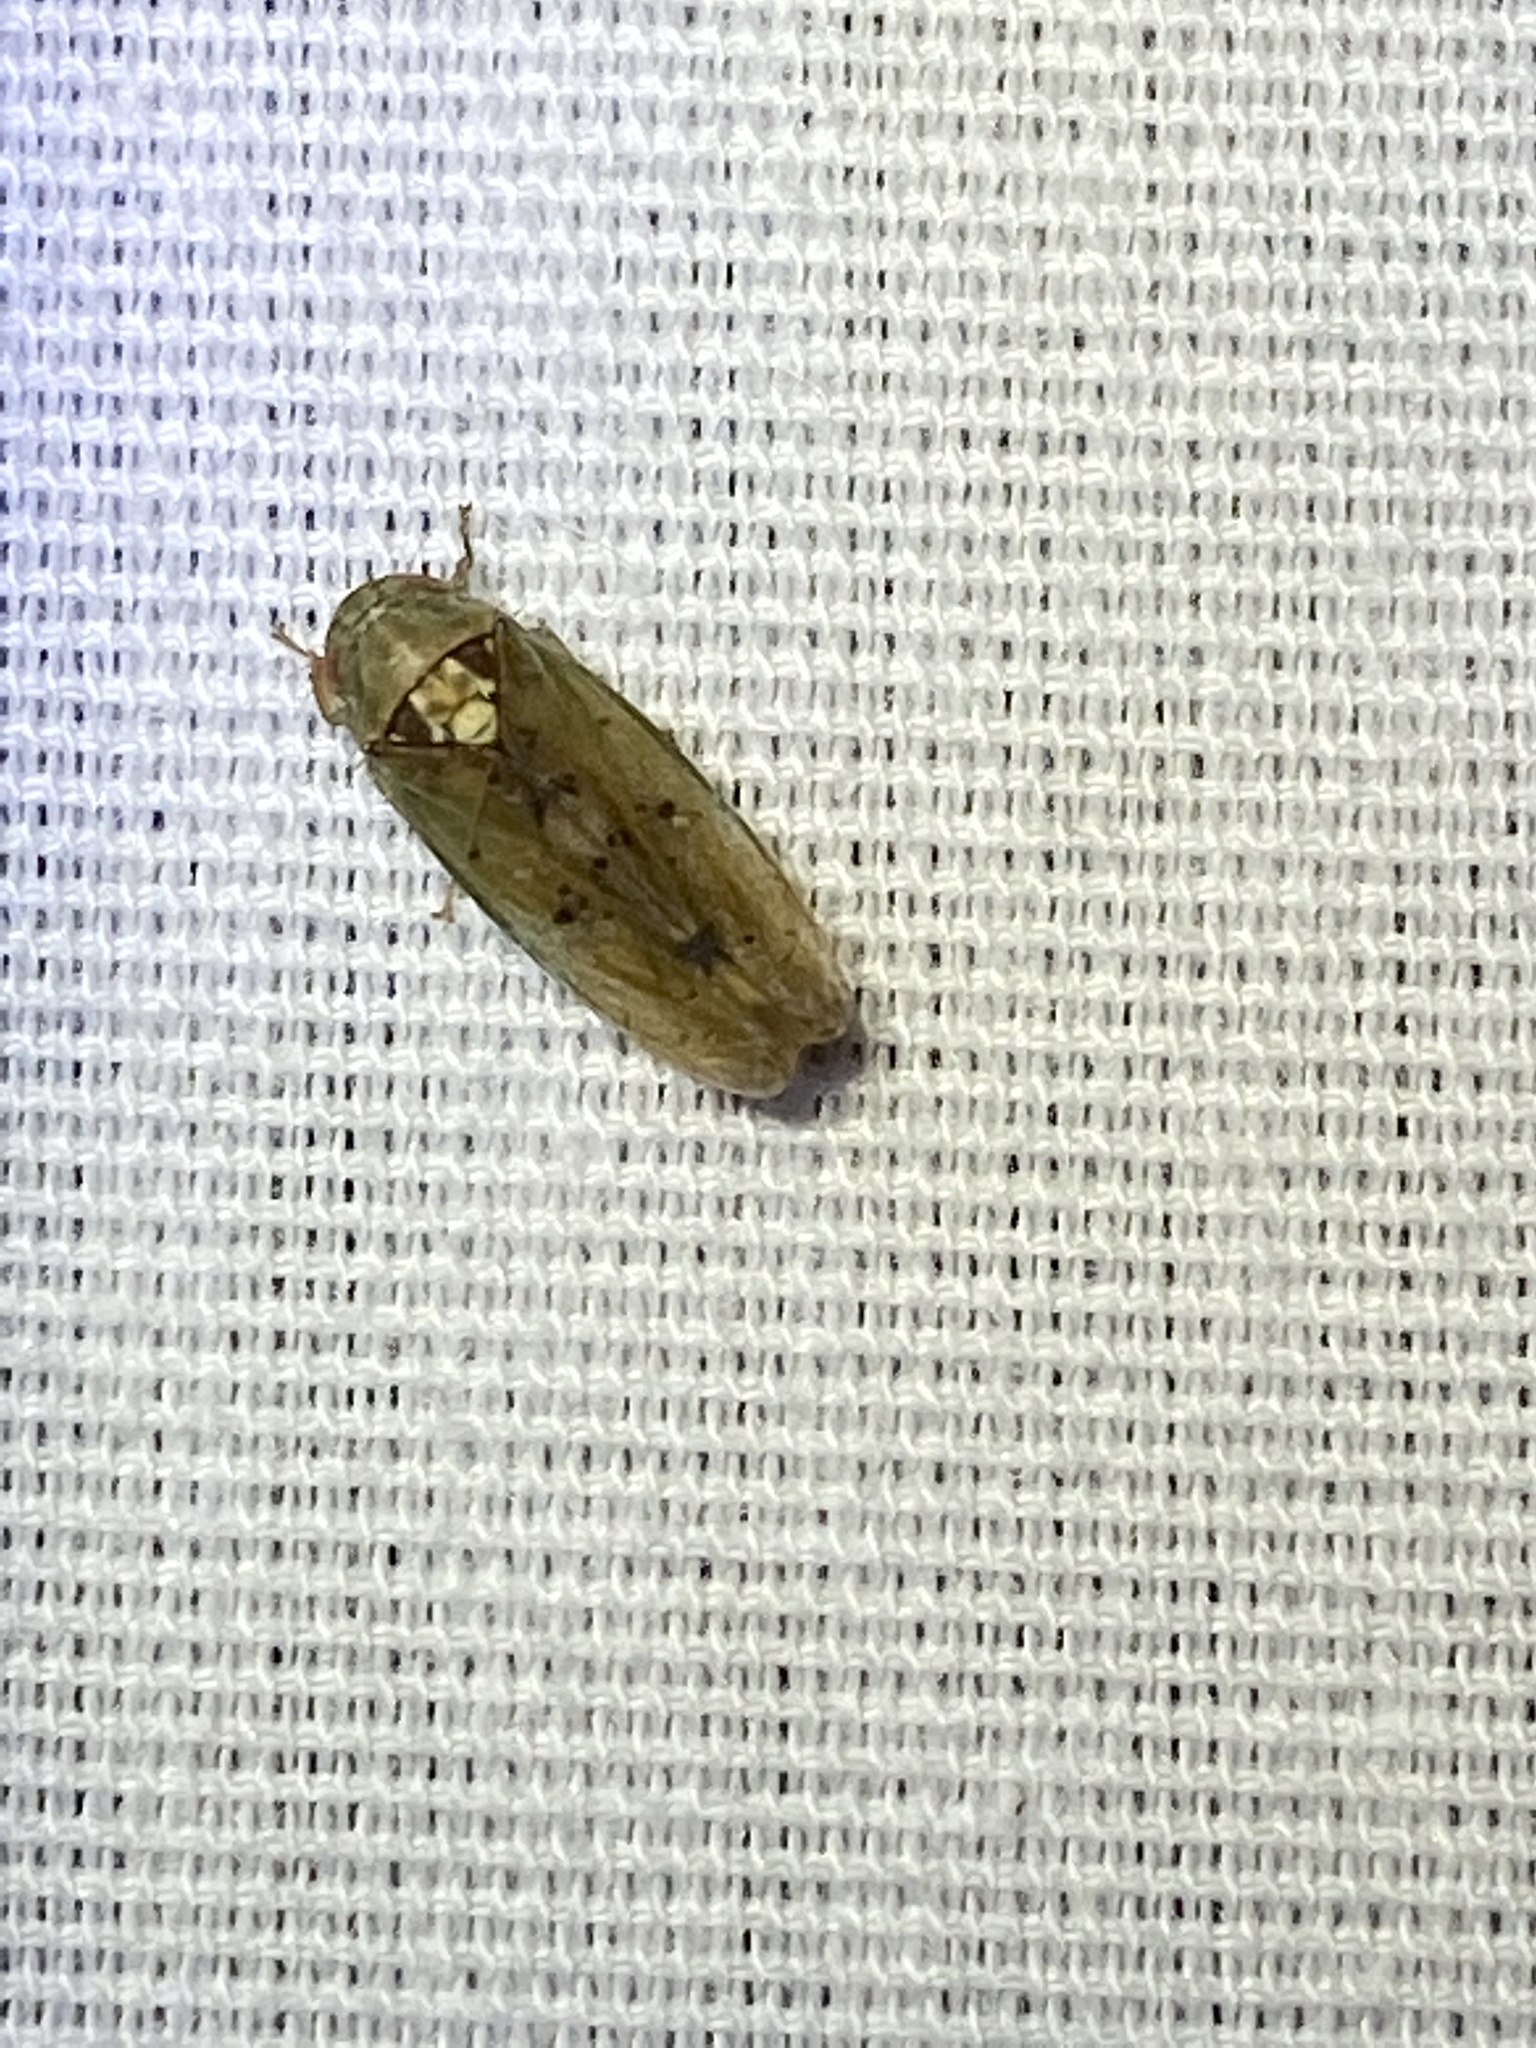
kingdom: Animalia
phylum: Arthropoda
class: Insecta
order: Hemiptera
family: Cicadellidae
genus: Ponana
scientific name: Ponana quadralaba
